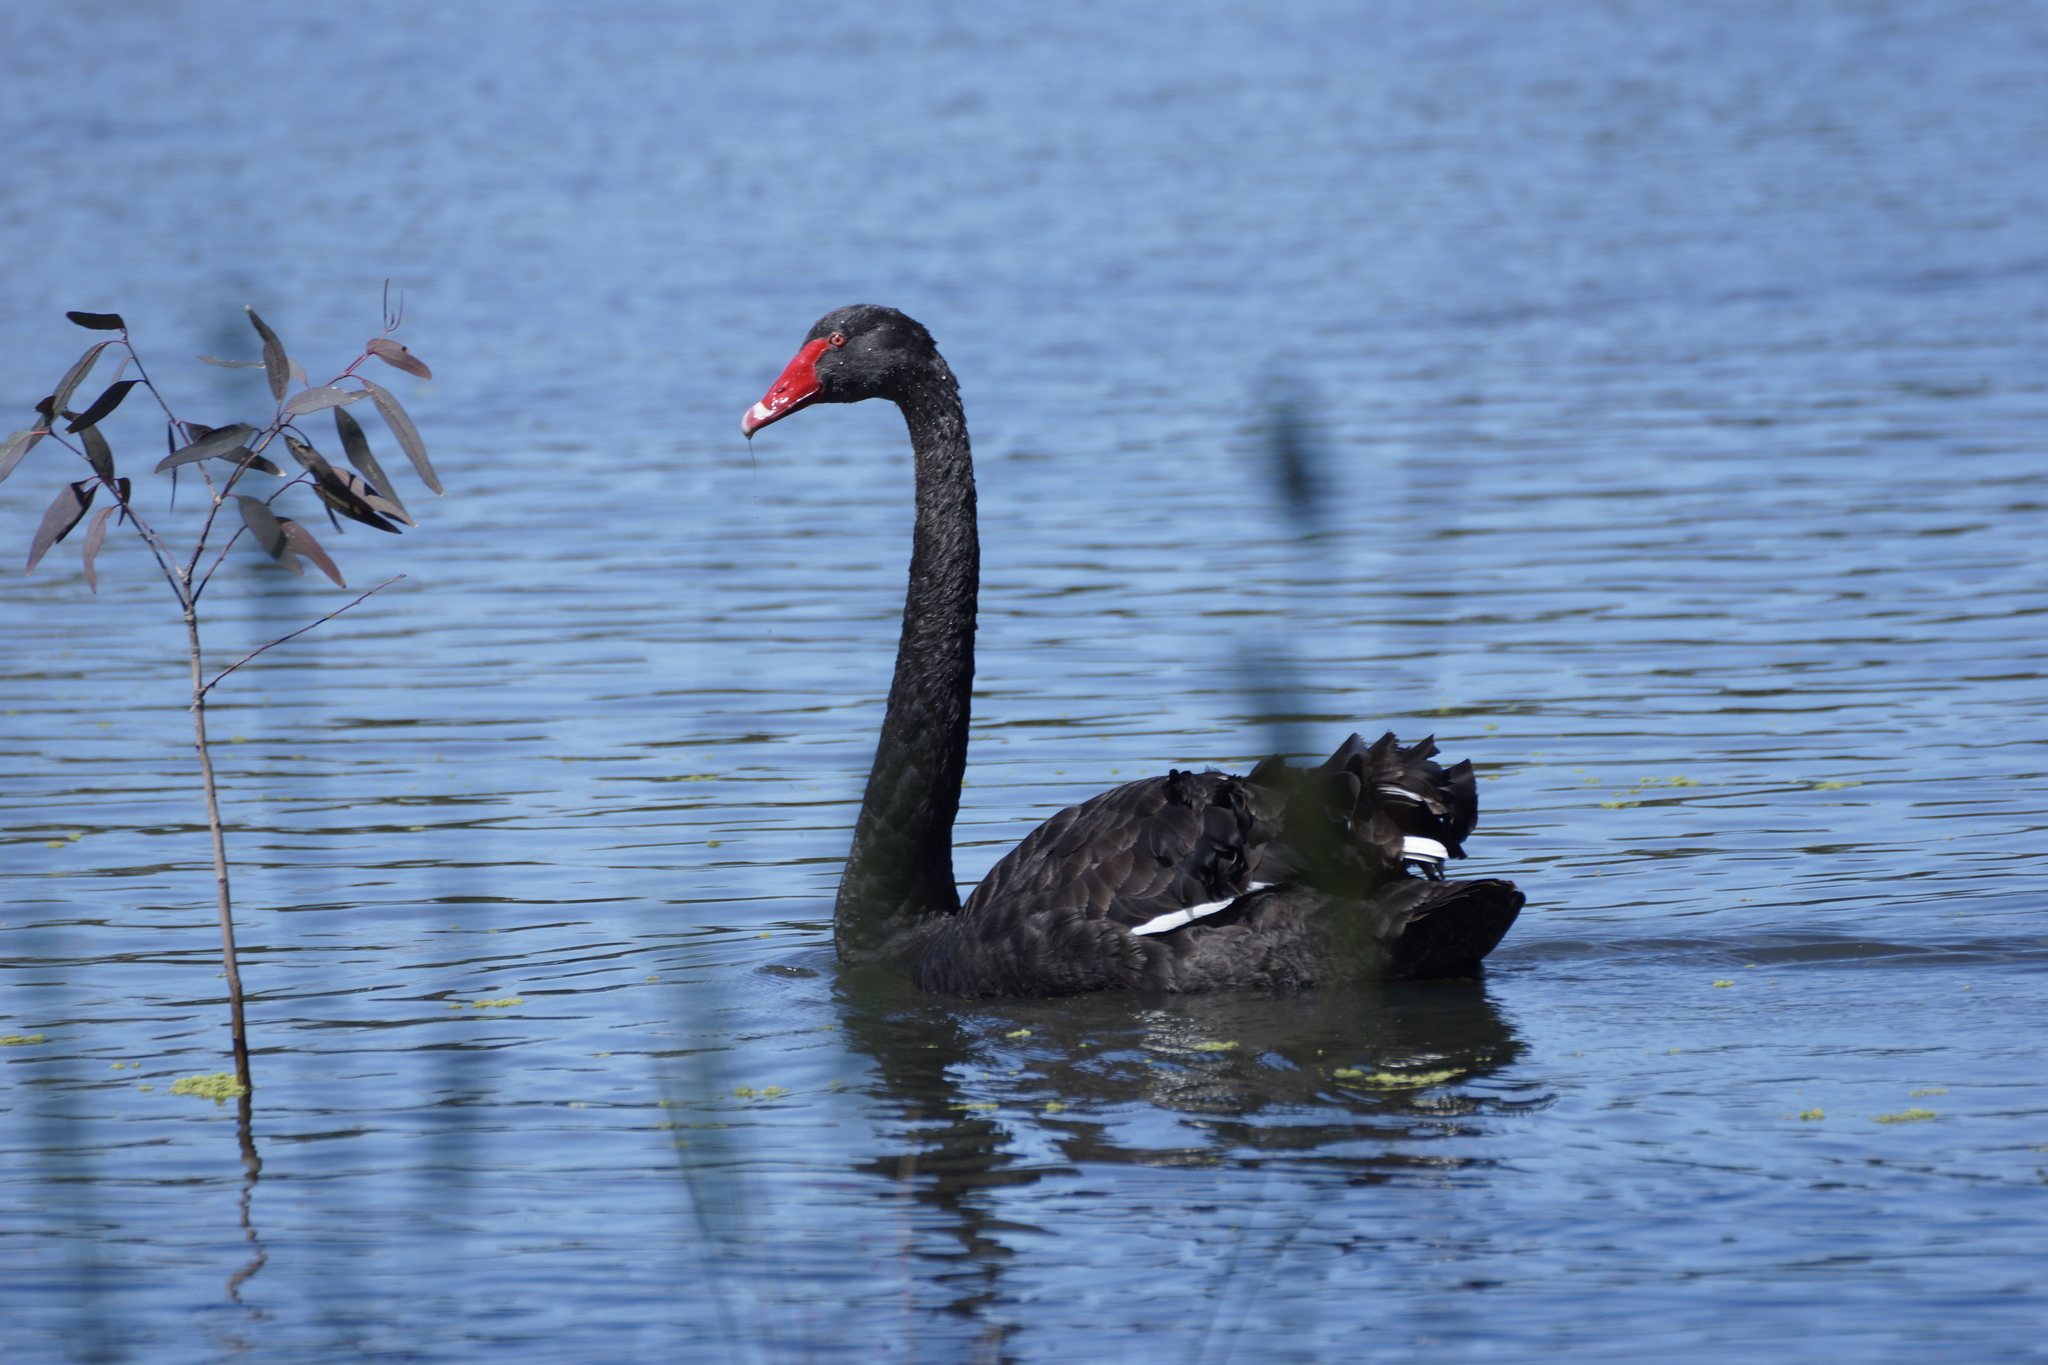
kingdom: Animalia
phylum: Chordata
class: Aves
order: Anseriformes
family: Anatidae
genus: Cygnus
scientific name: Cygnus atratus
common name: Black swan
